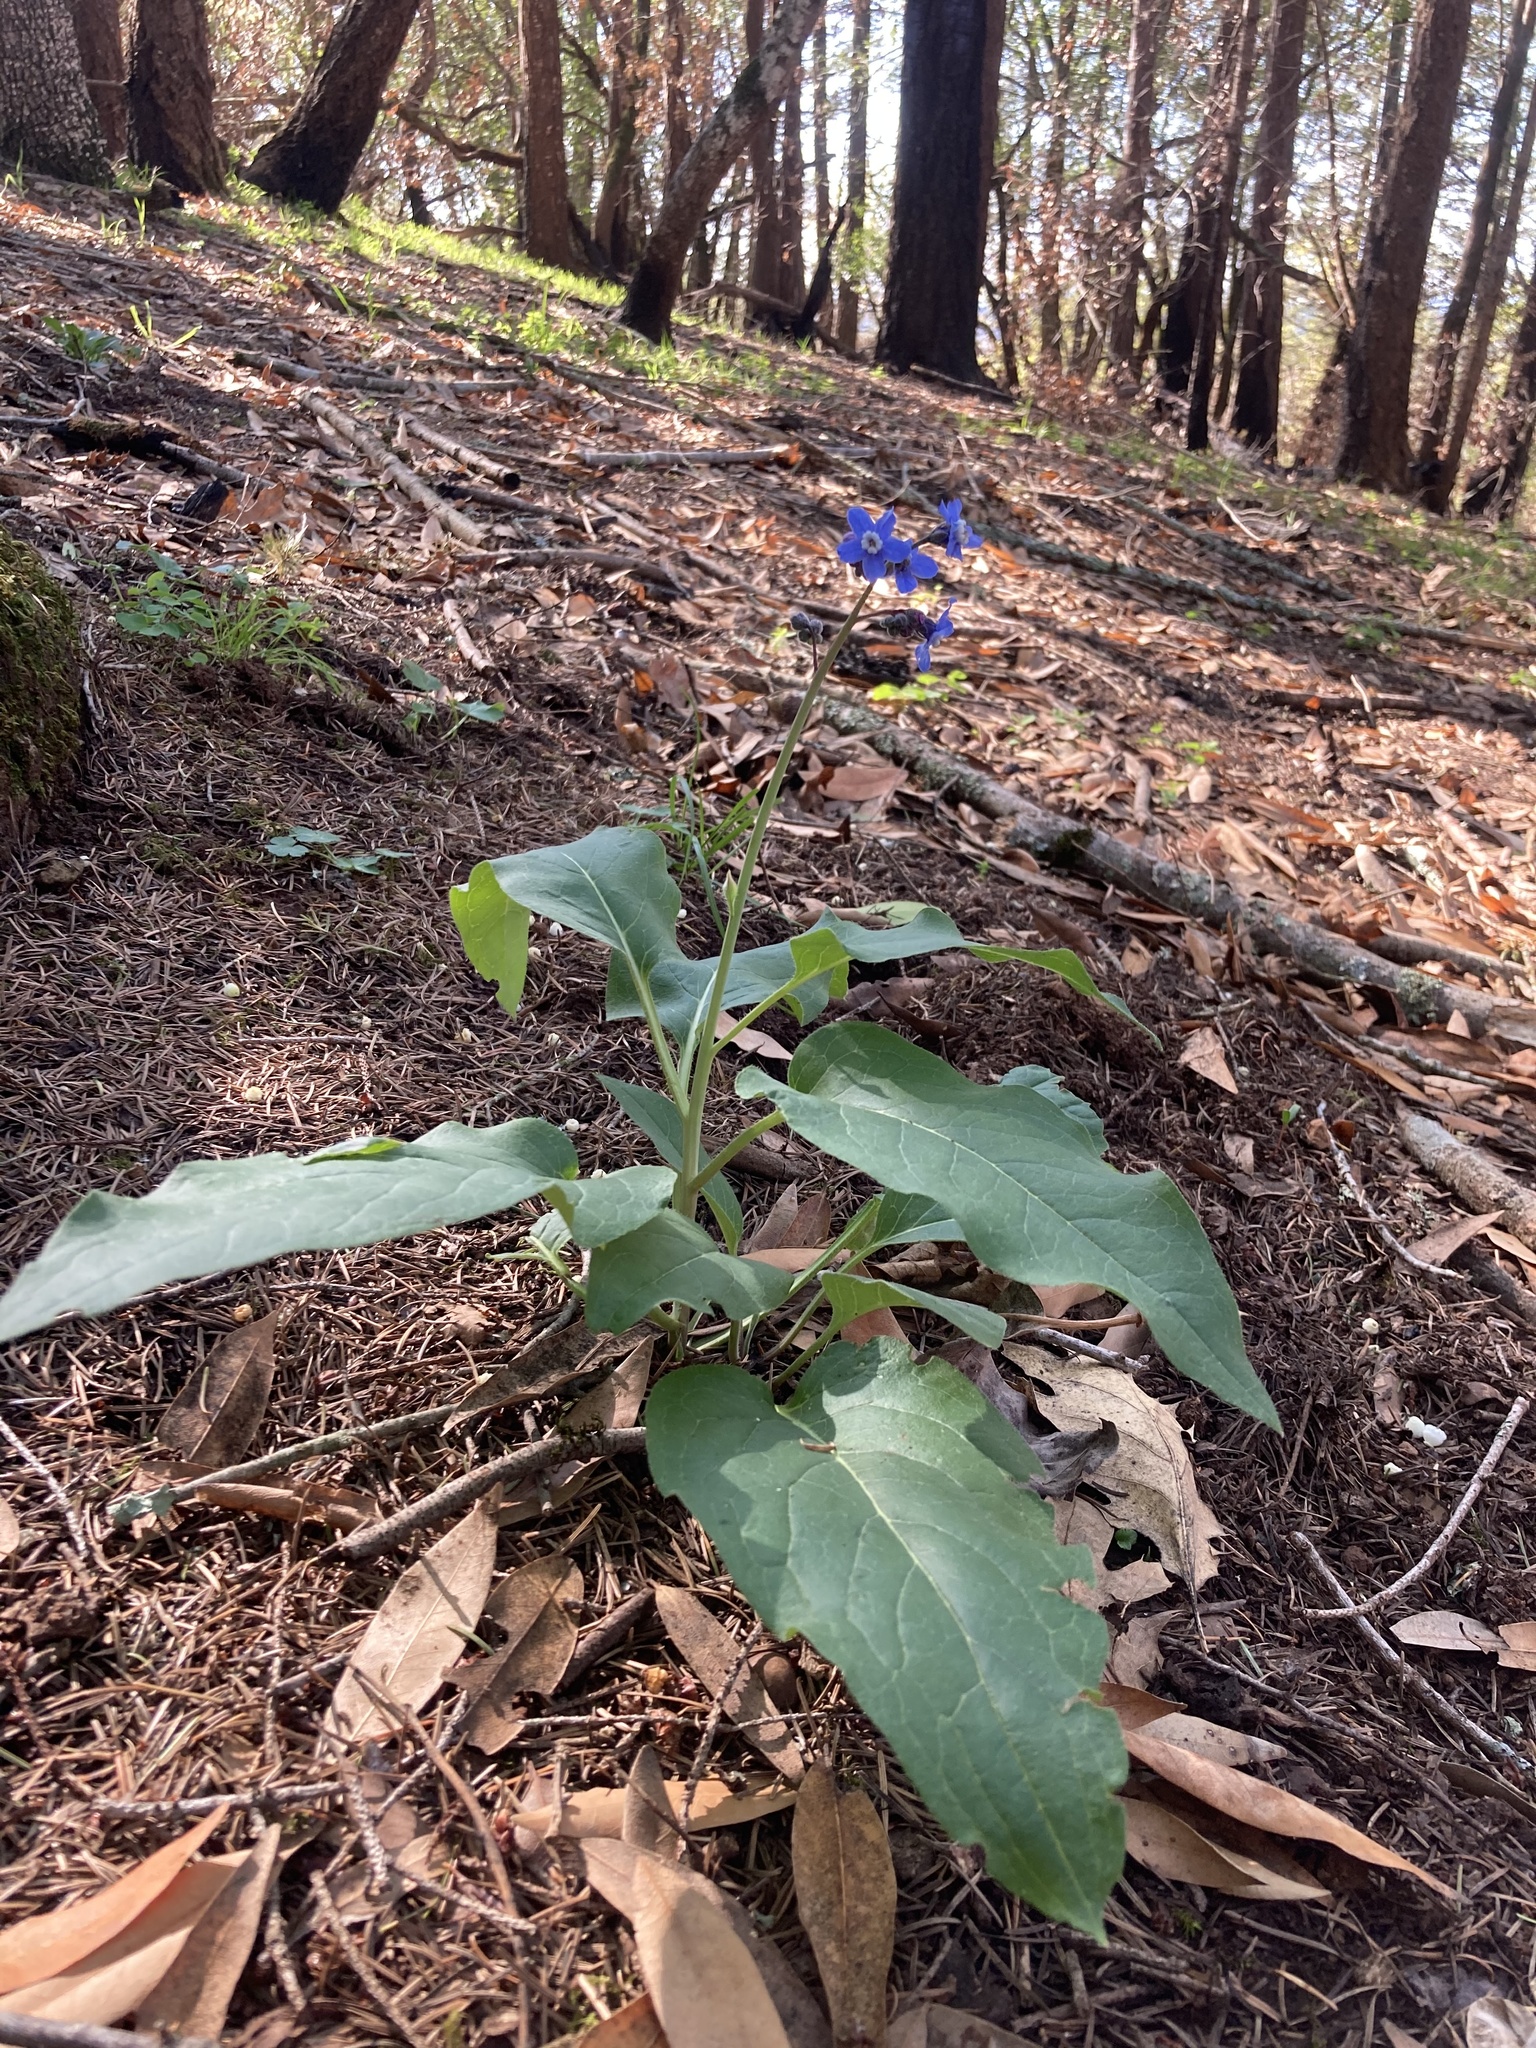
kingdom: Plantae
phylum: Tracheophyta
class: Magnoliopsida
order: Boraginales
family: Boraginaceae
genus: Adelinia
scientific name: Adelinia grande
